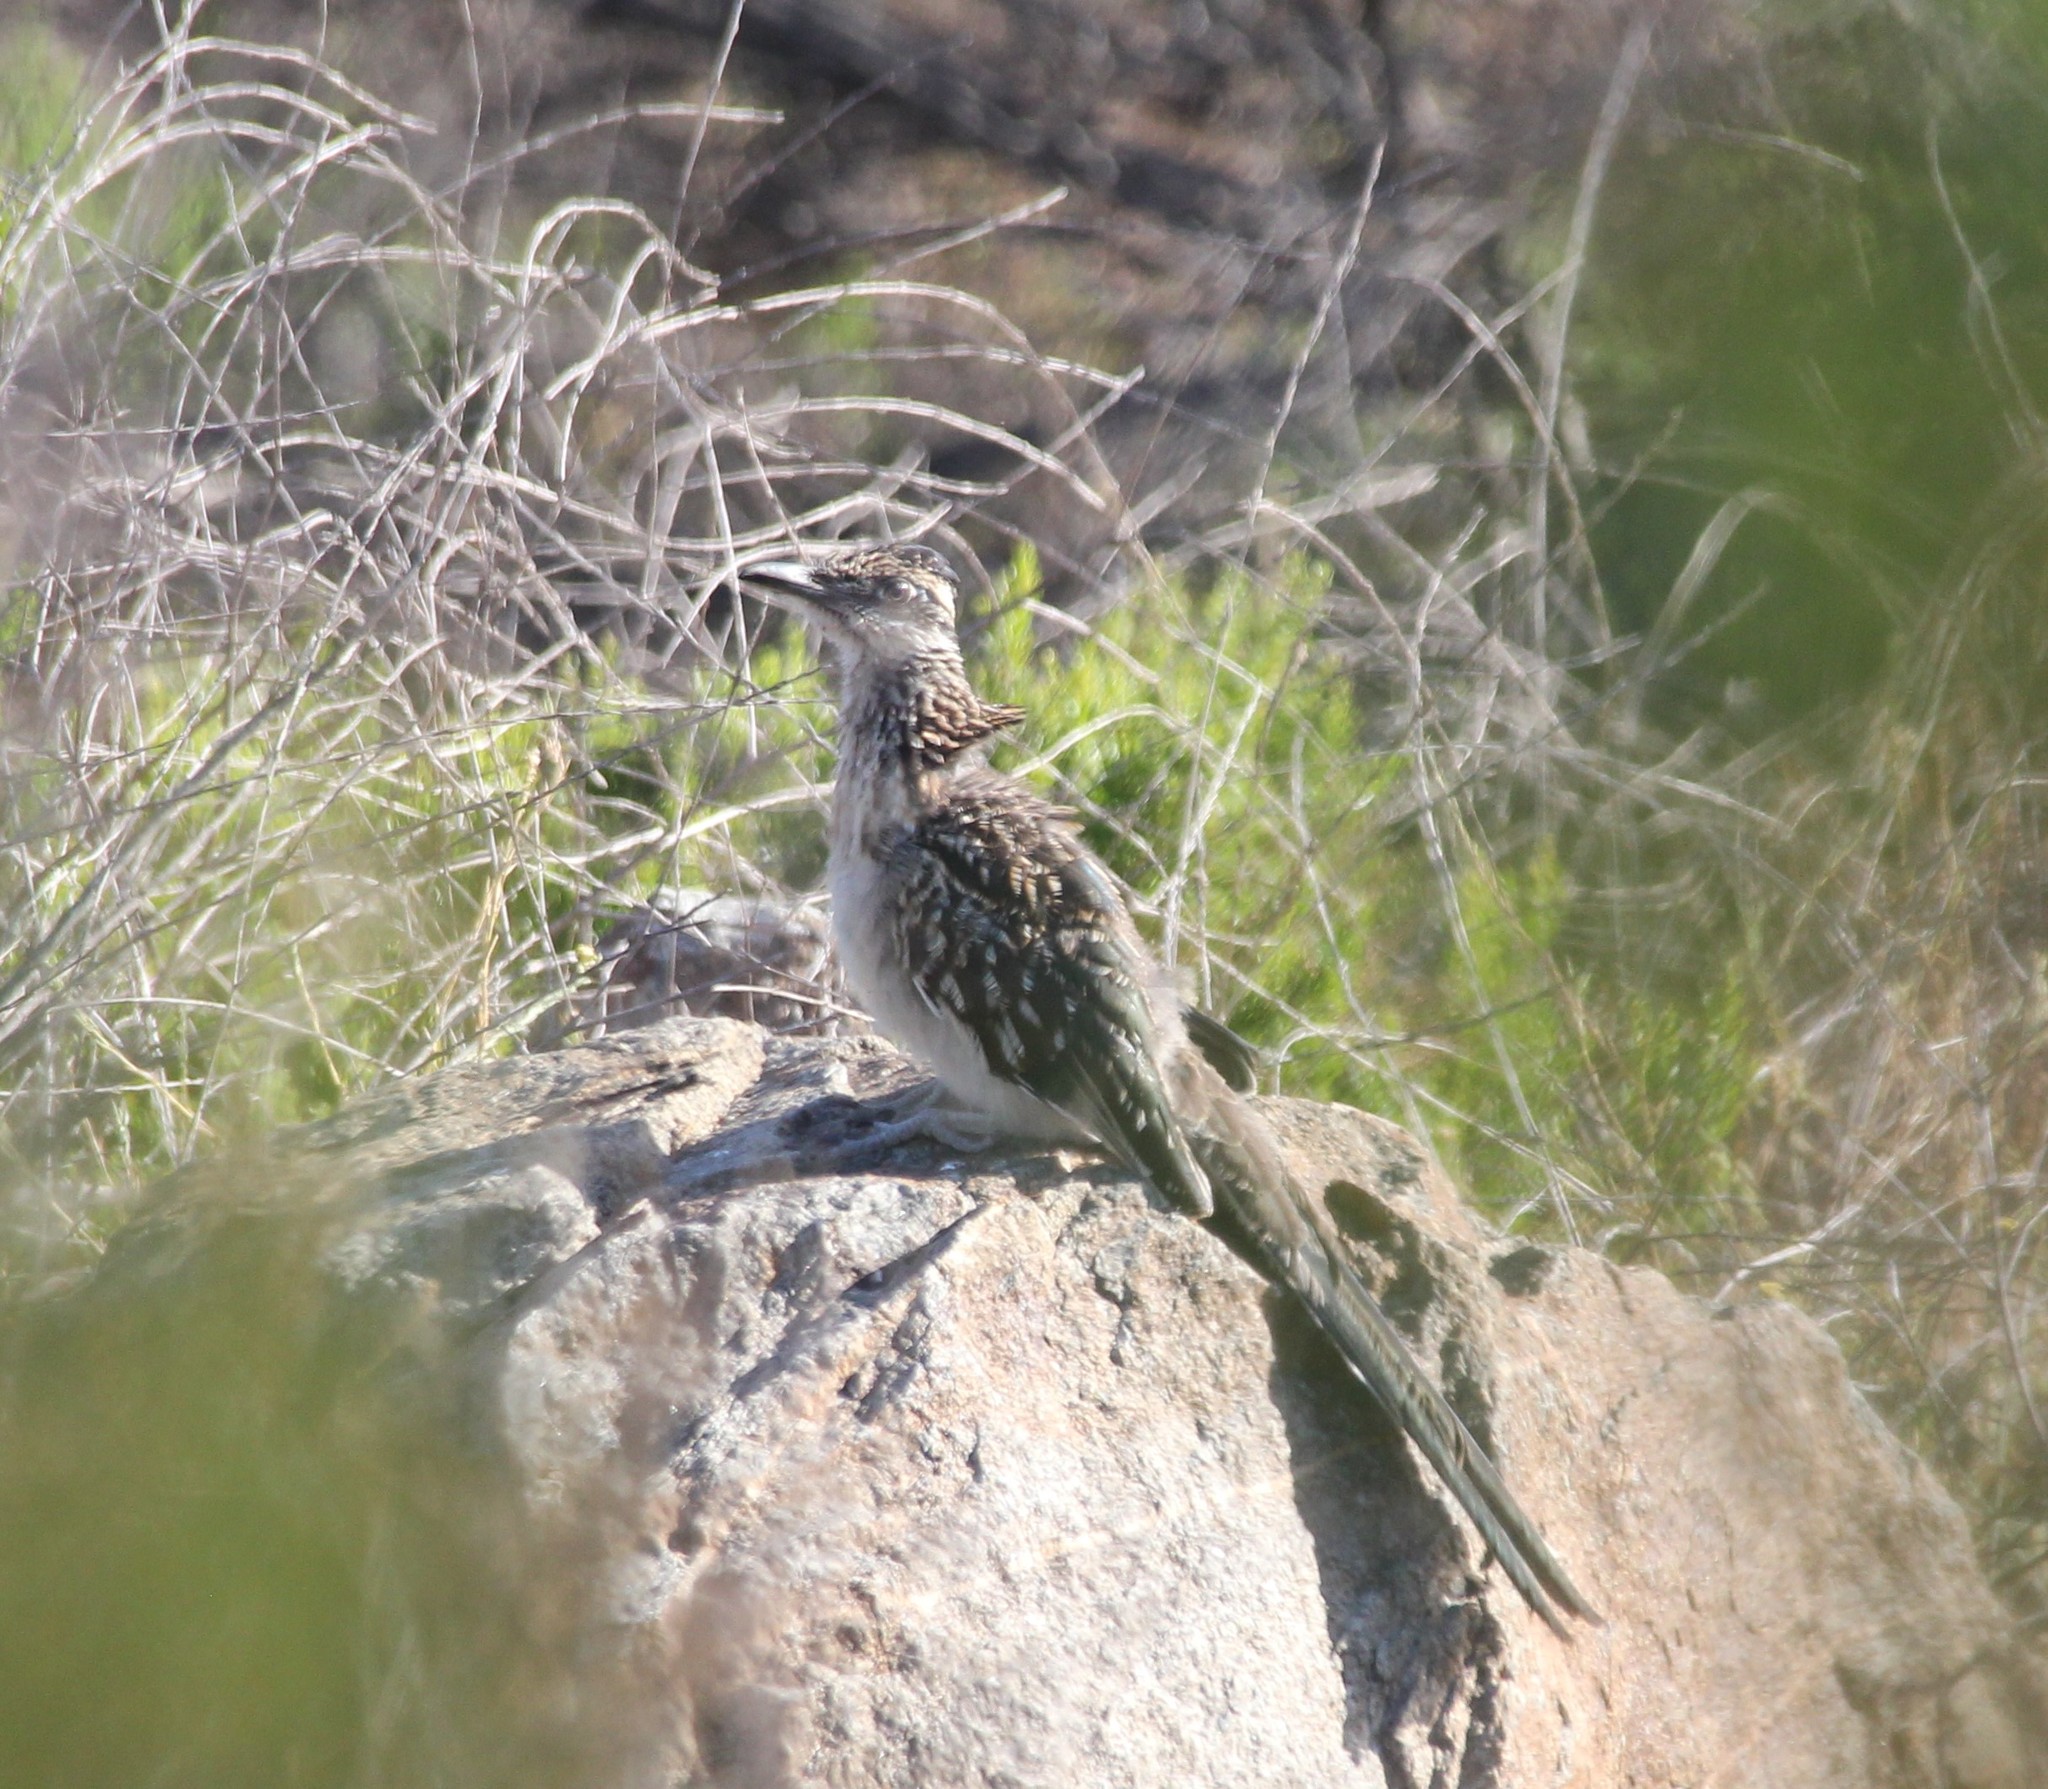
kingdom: Animalia
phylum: Chordata
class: Aves
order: Cuculiformes
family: Cuculidae
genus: Geococcyx
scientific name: Geococcyx californianus
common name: Greater roadrunner
